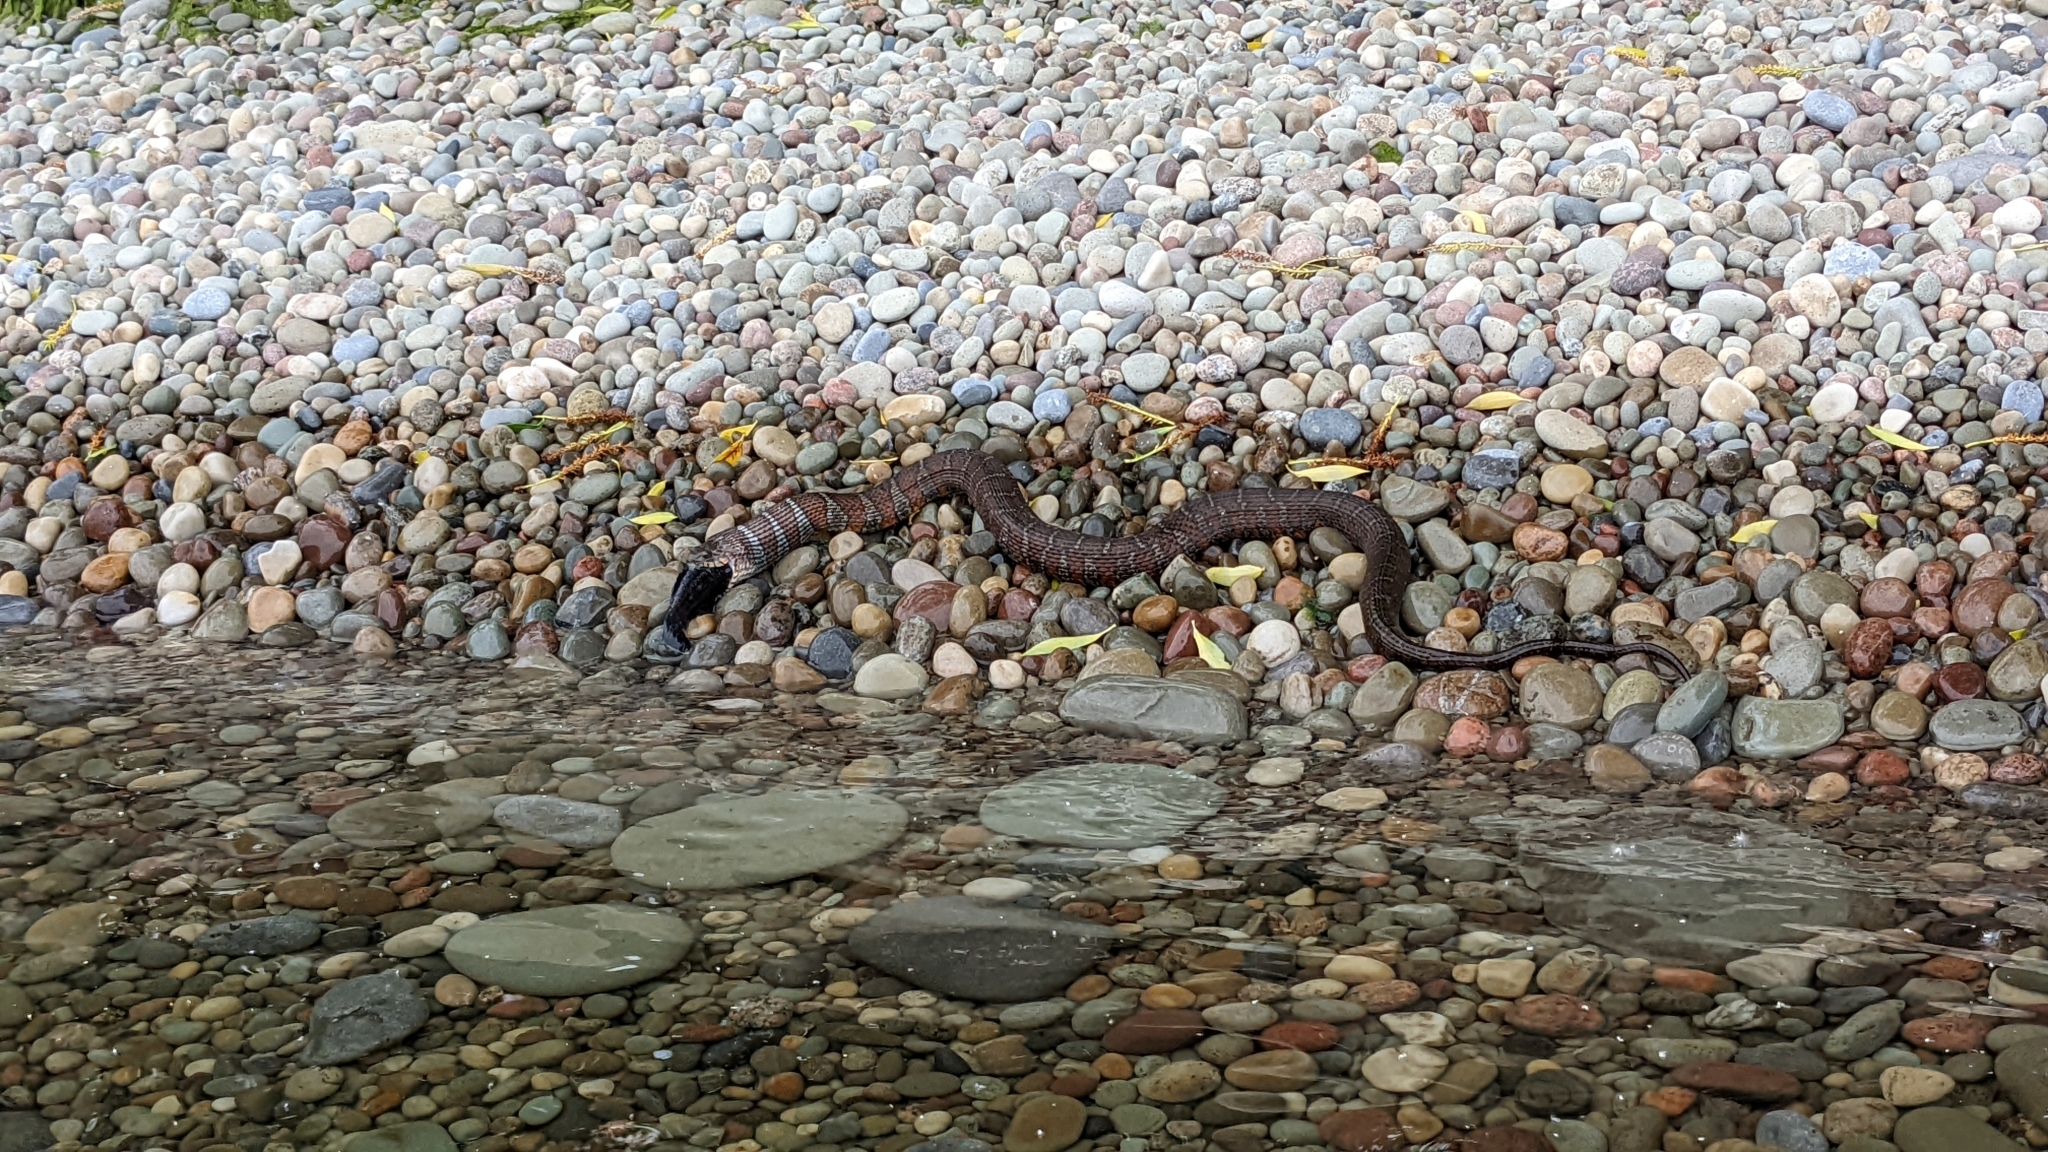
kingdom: Animalia
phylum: Chordata
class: Squamata
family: Colubridae
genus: Nerodia
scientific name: Nerodia sipedon
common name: Northern water snake
